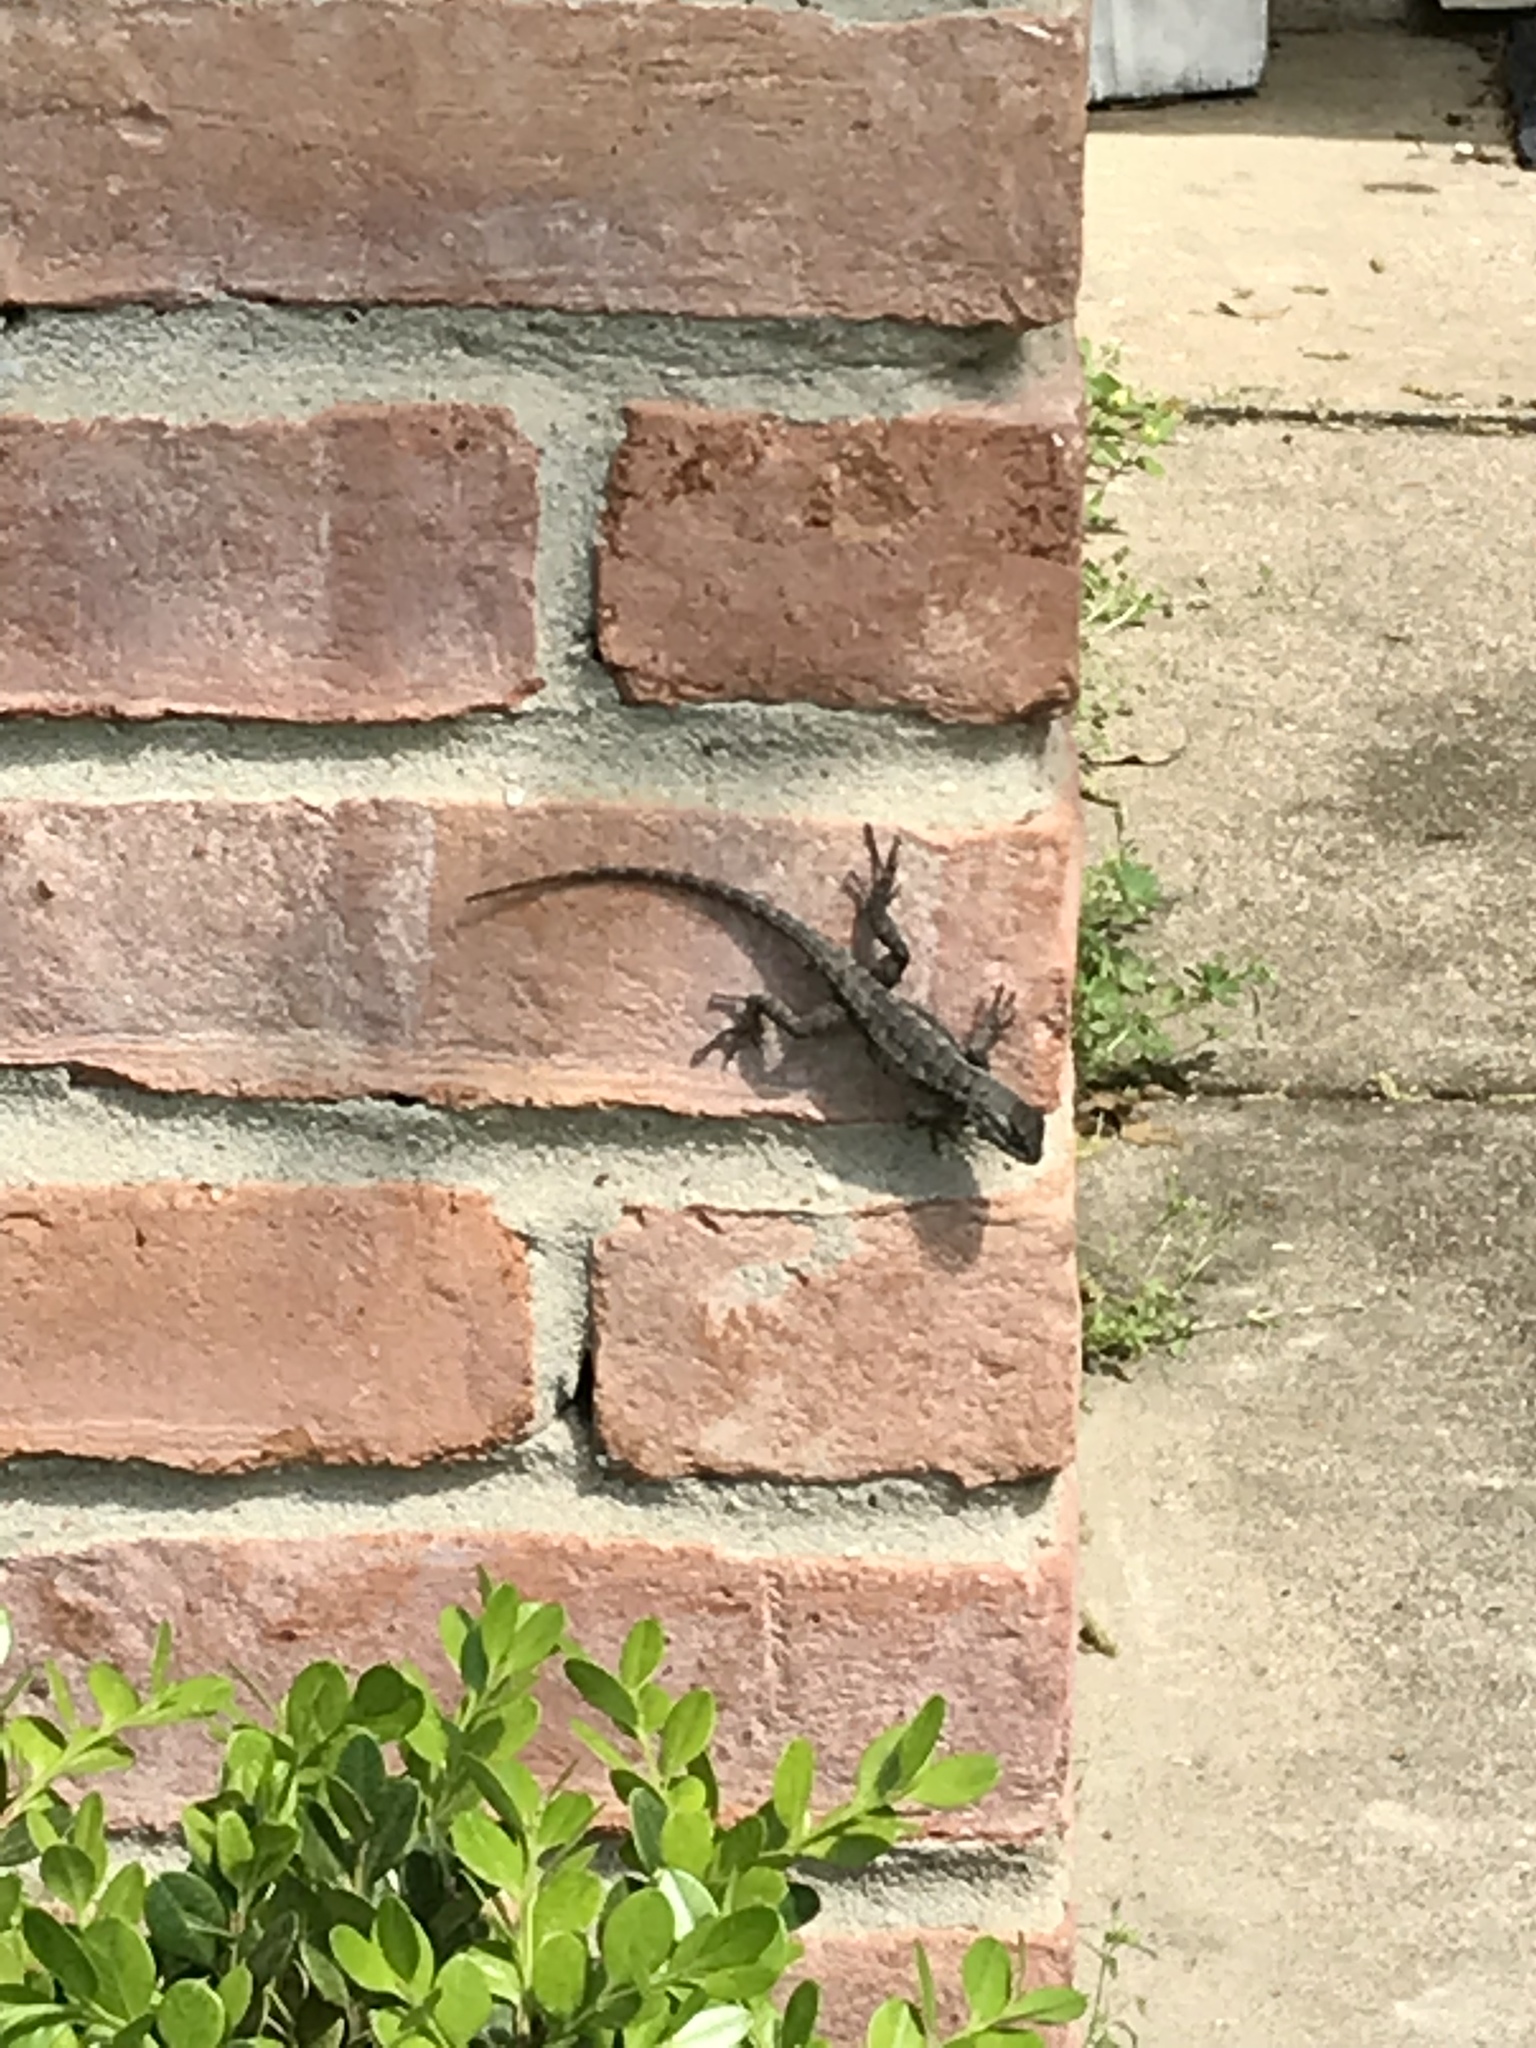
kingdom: Animalia
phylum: Chordata
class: Squamata
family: Phrynosomatidae
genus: Sceloporus
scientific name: Sceloporus olivaceus
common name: Texas spiny lizard
